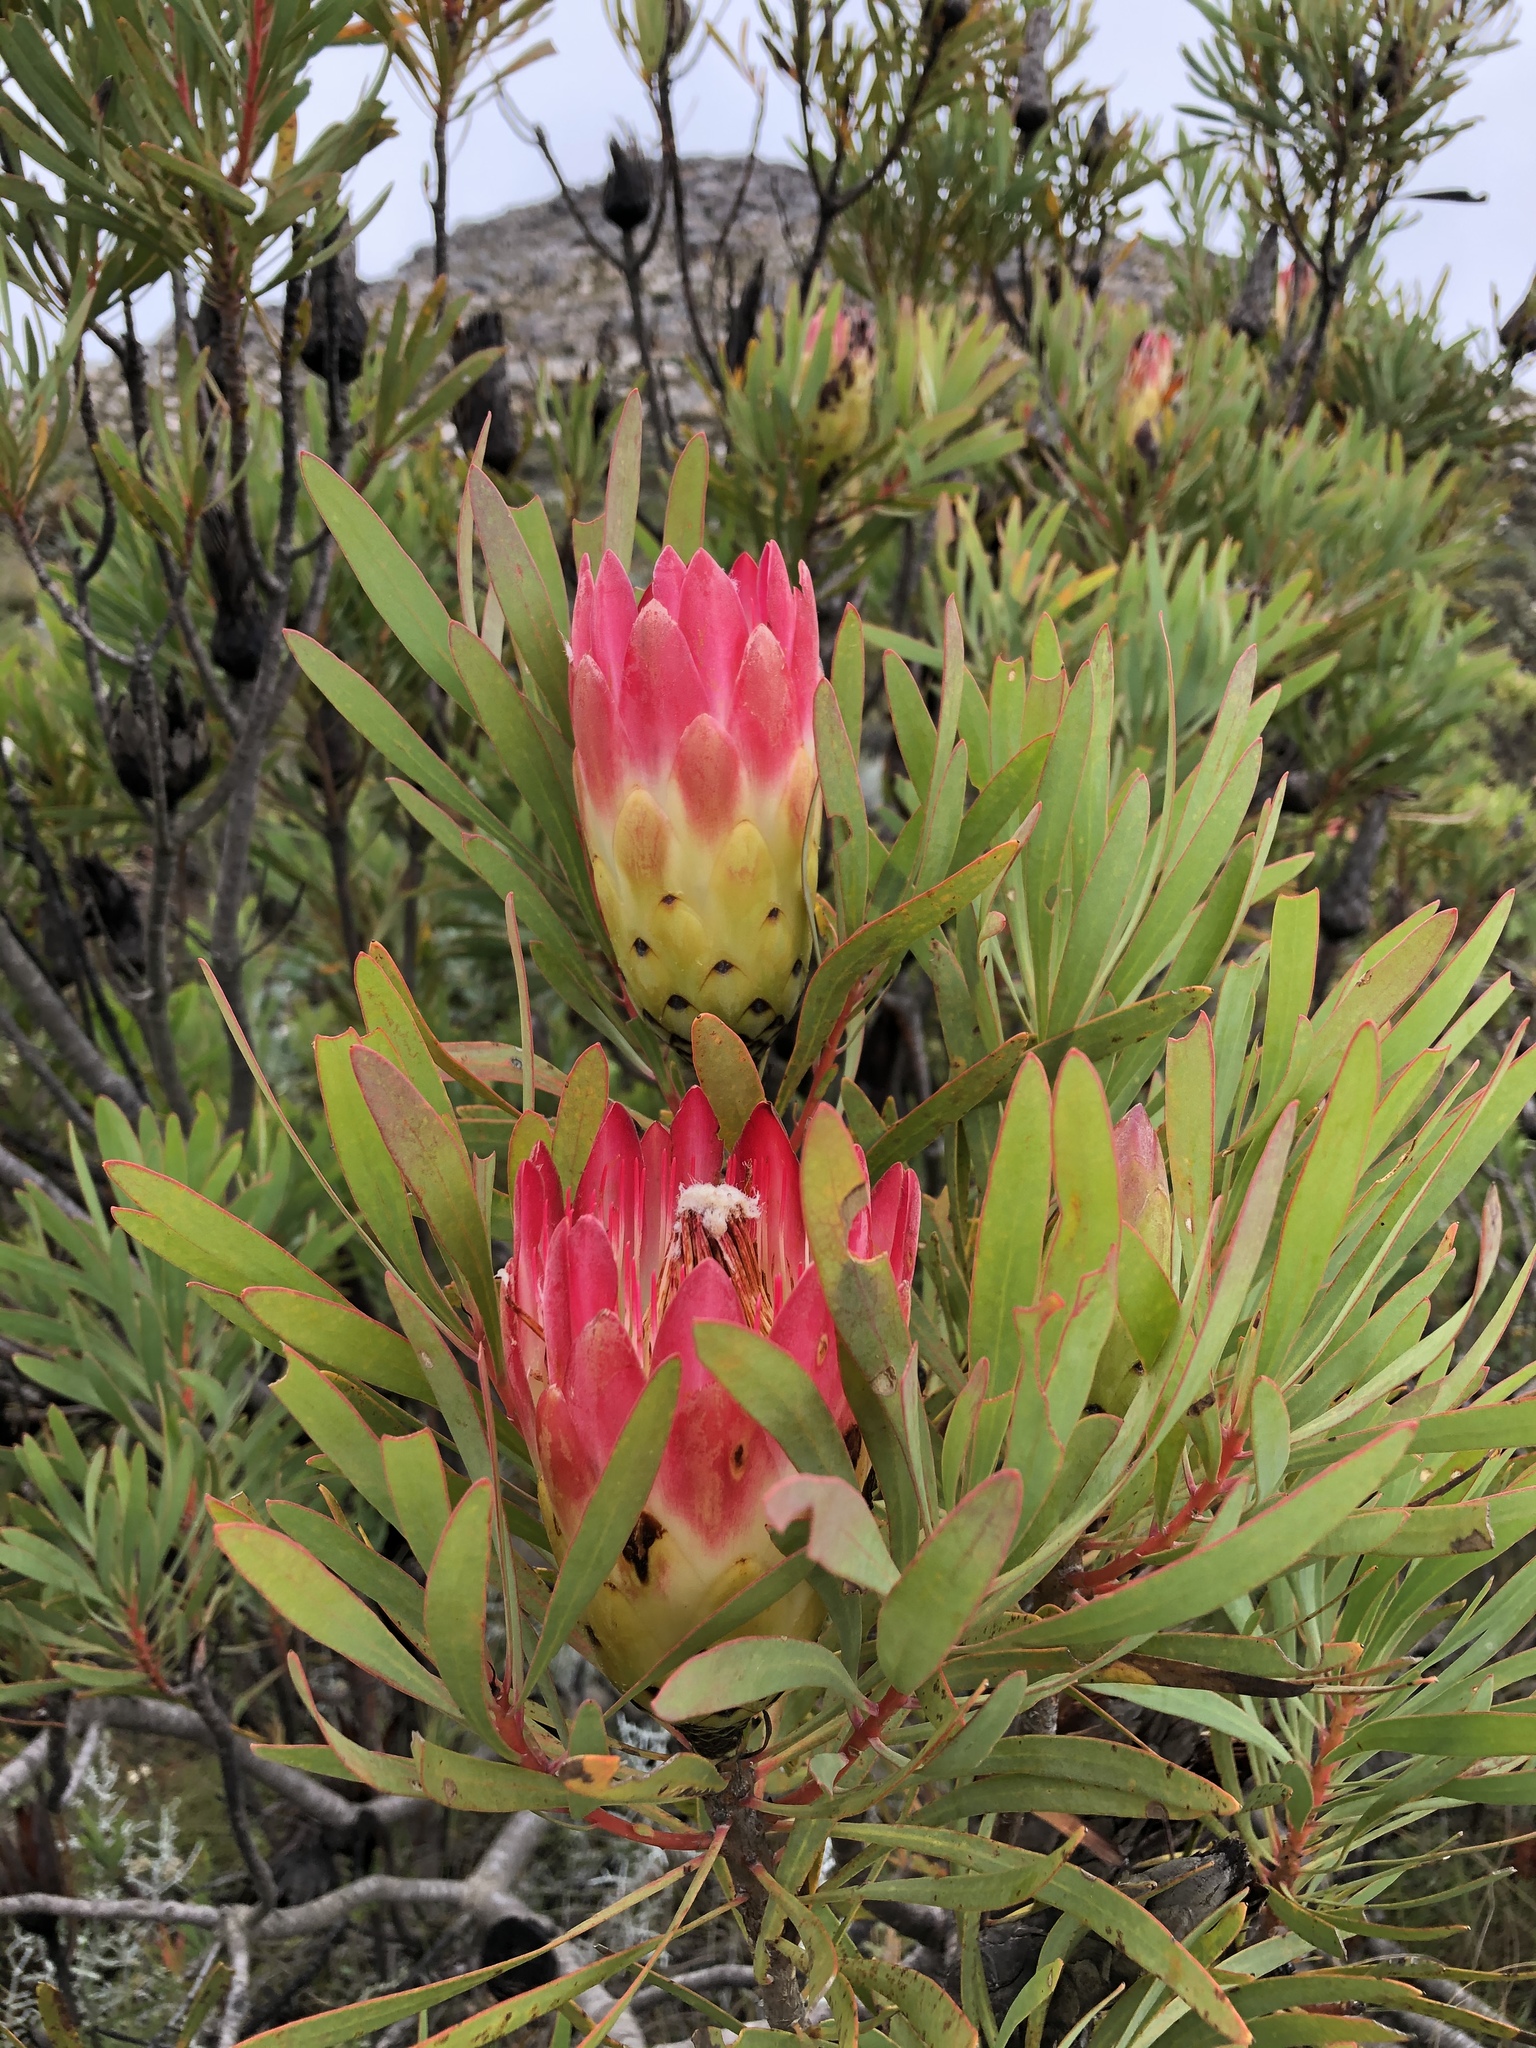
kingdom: Plantae
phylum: Tracheophyta
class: Magnoliopsida
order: Proteales
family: Proteaceae
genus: Protea
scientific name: Protea repens
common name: Sugarbush
